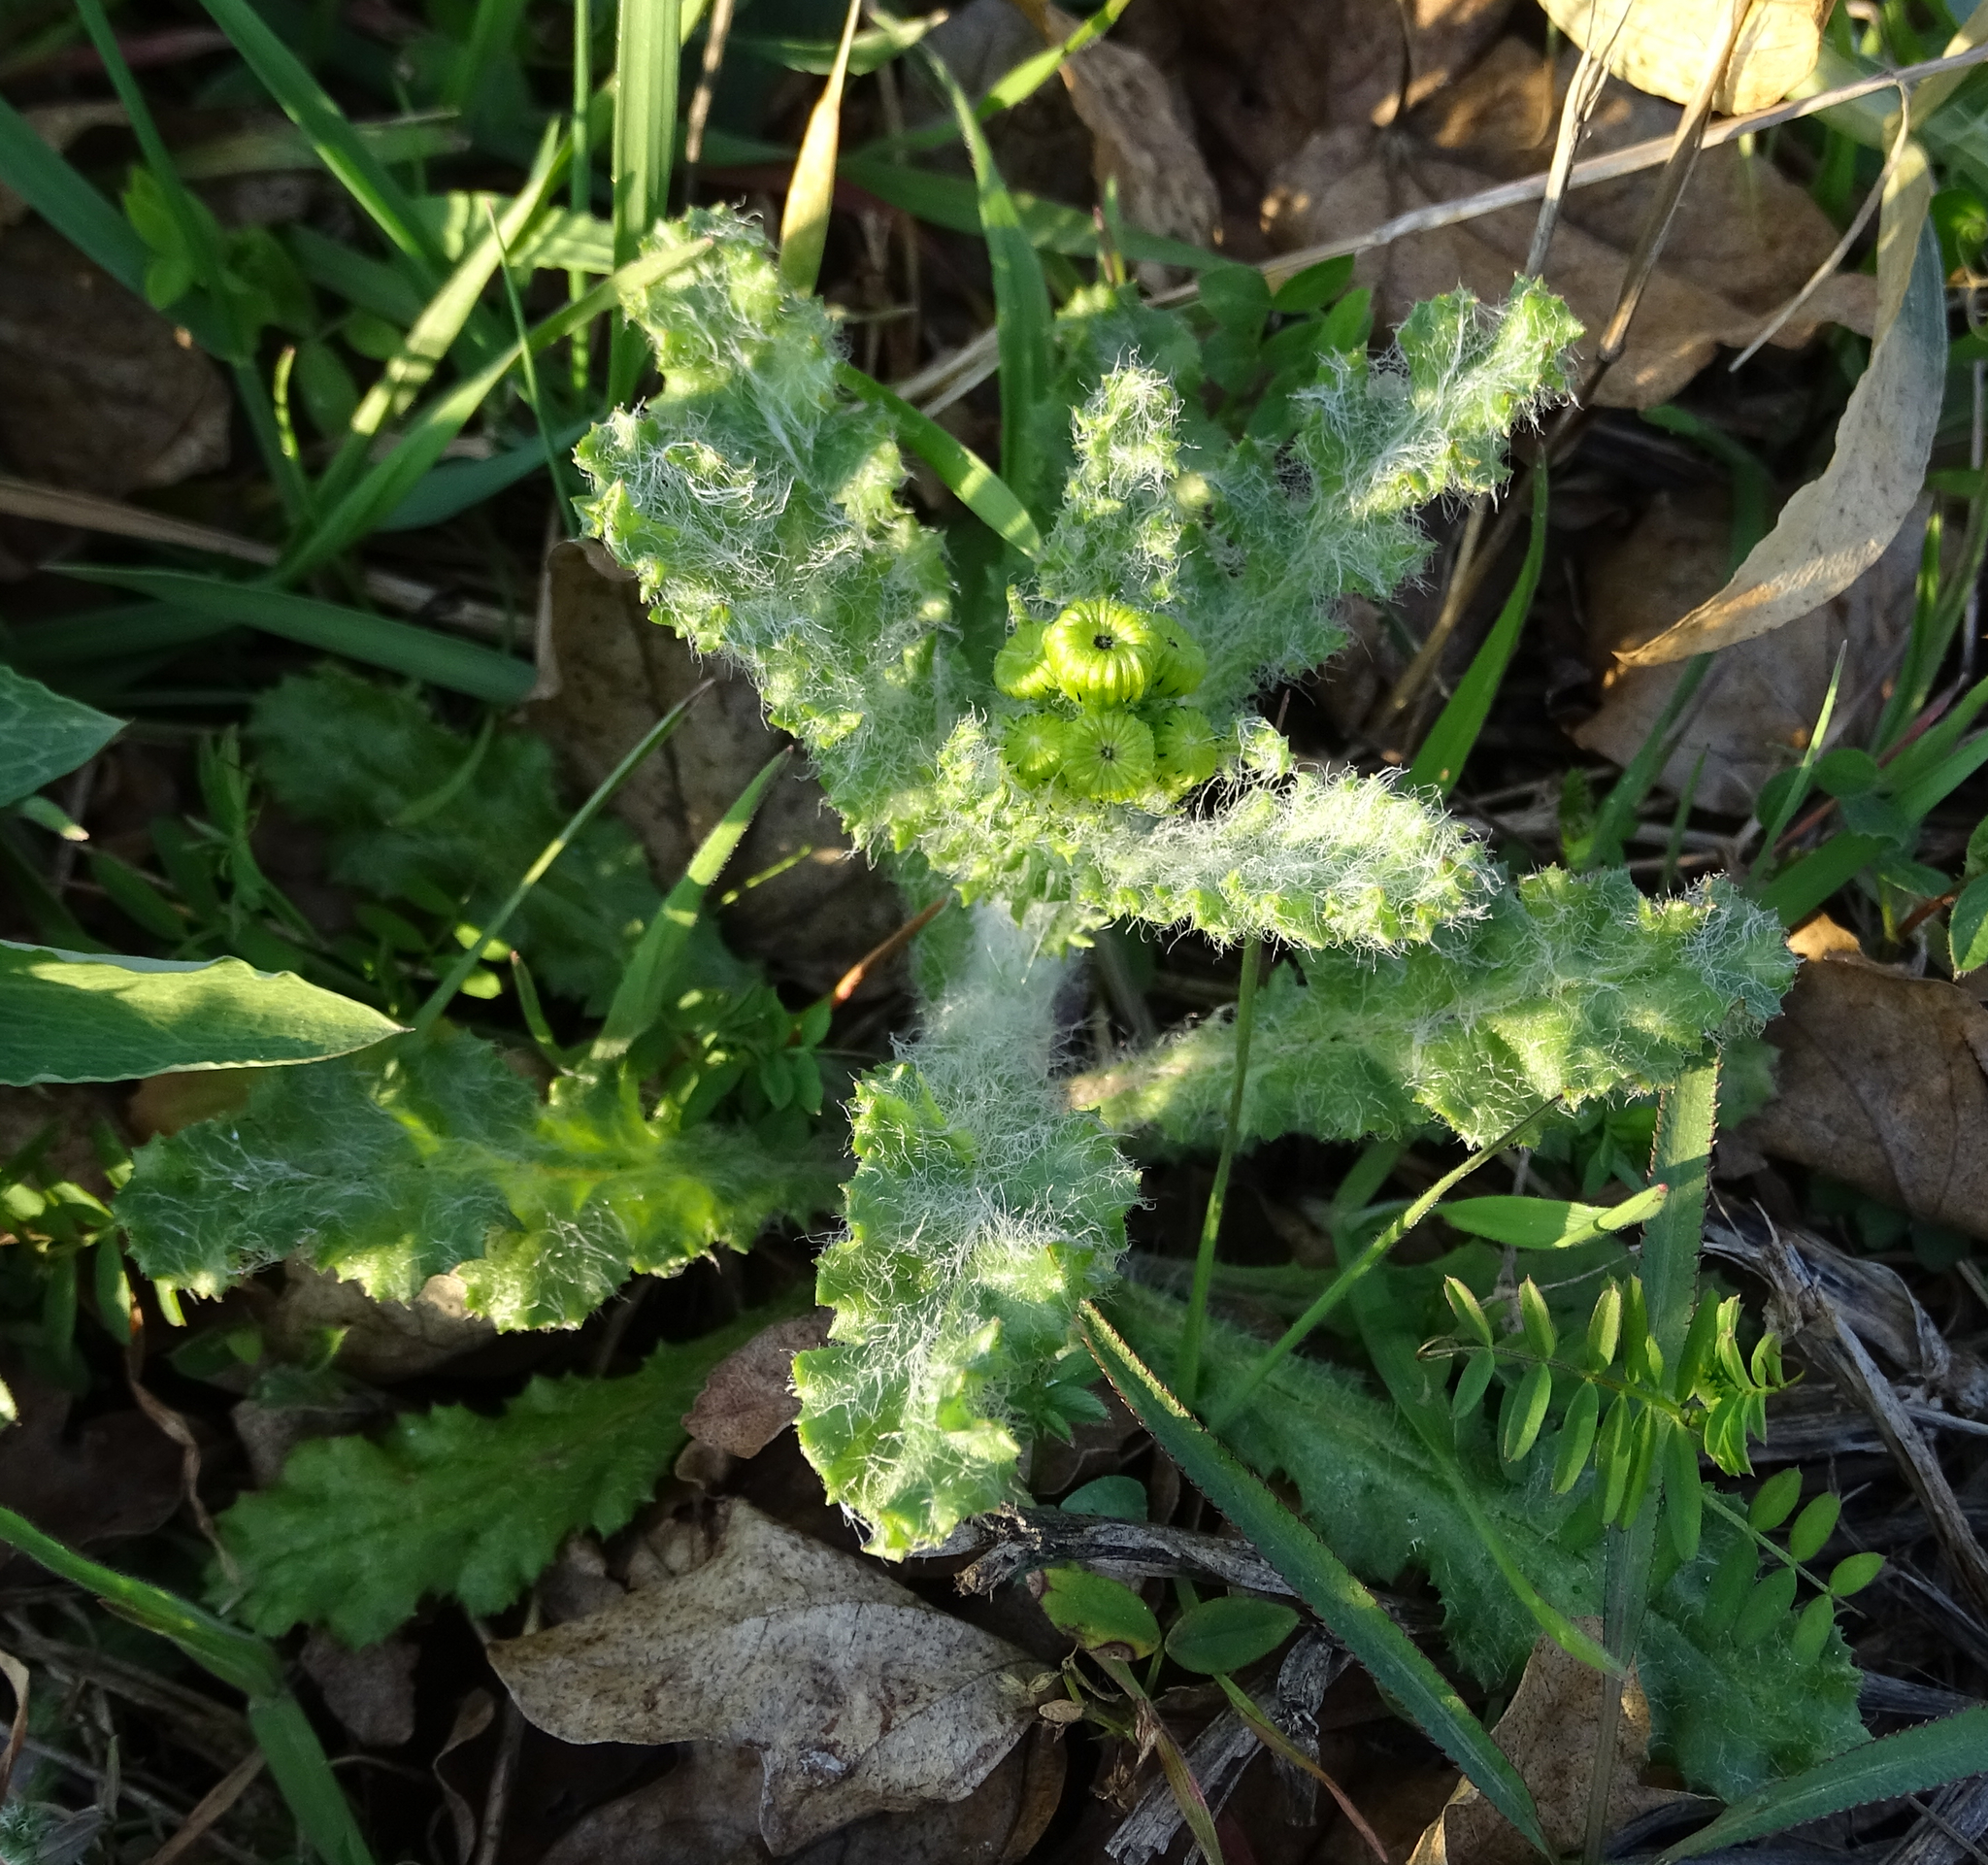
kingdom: Plantae
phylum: Tracheophyta
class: Magnoliopsida
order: Asterales
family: Asteraceae
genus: Senecio
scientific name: Senecio vernalis
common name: Eastern groundsel
